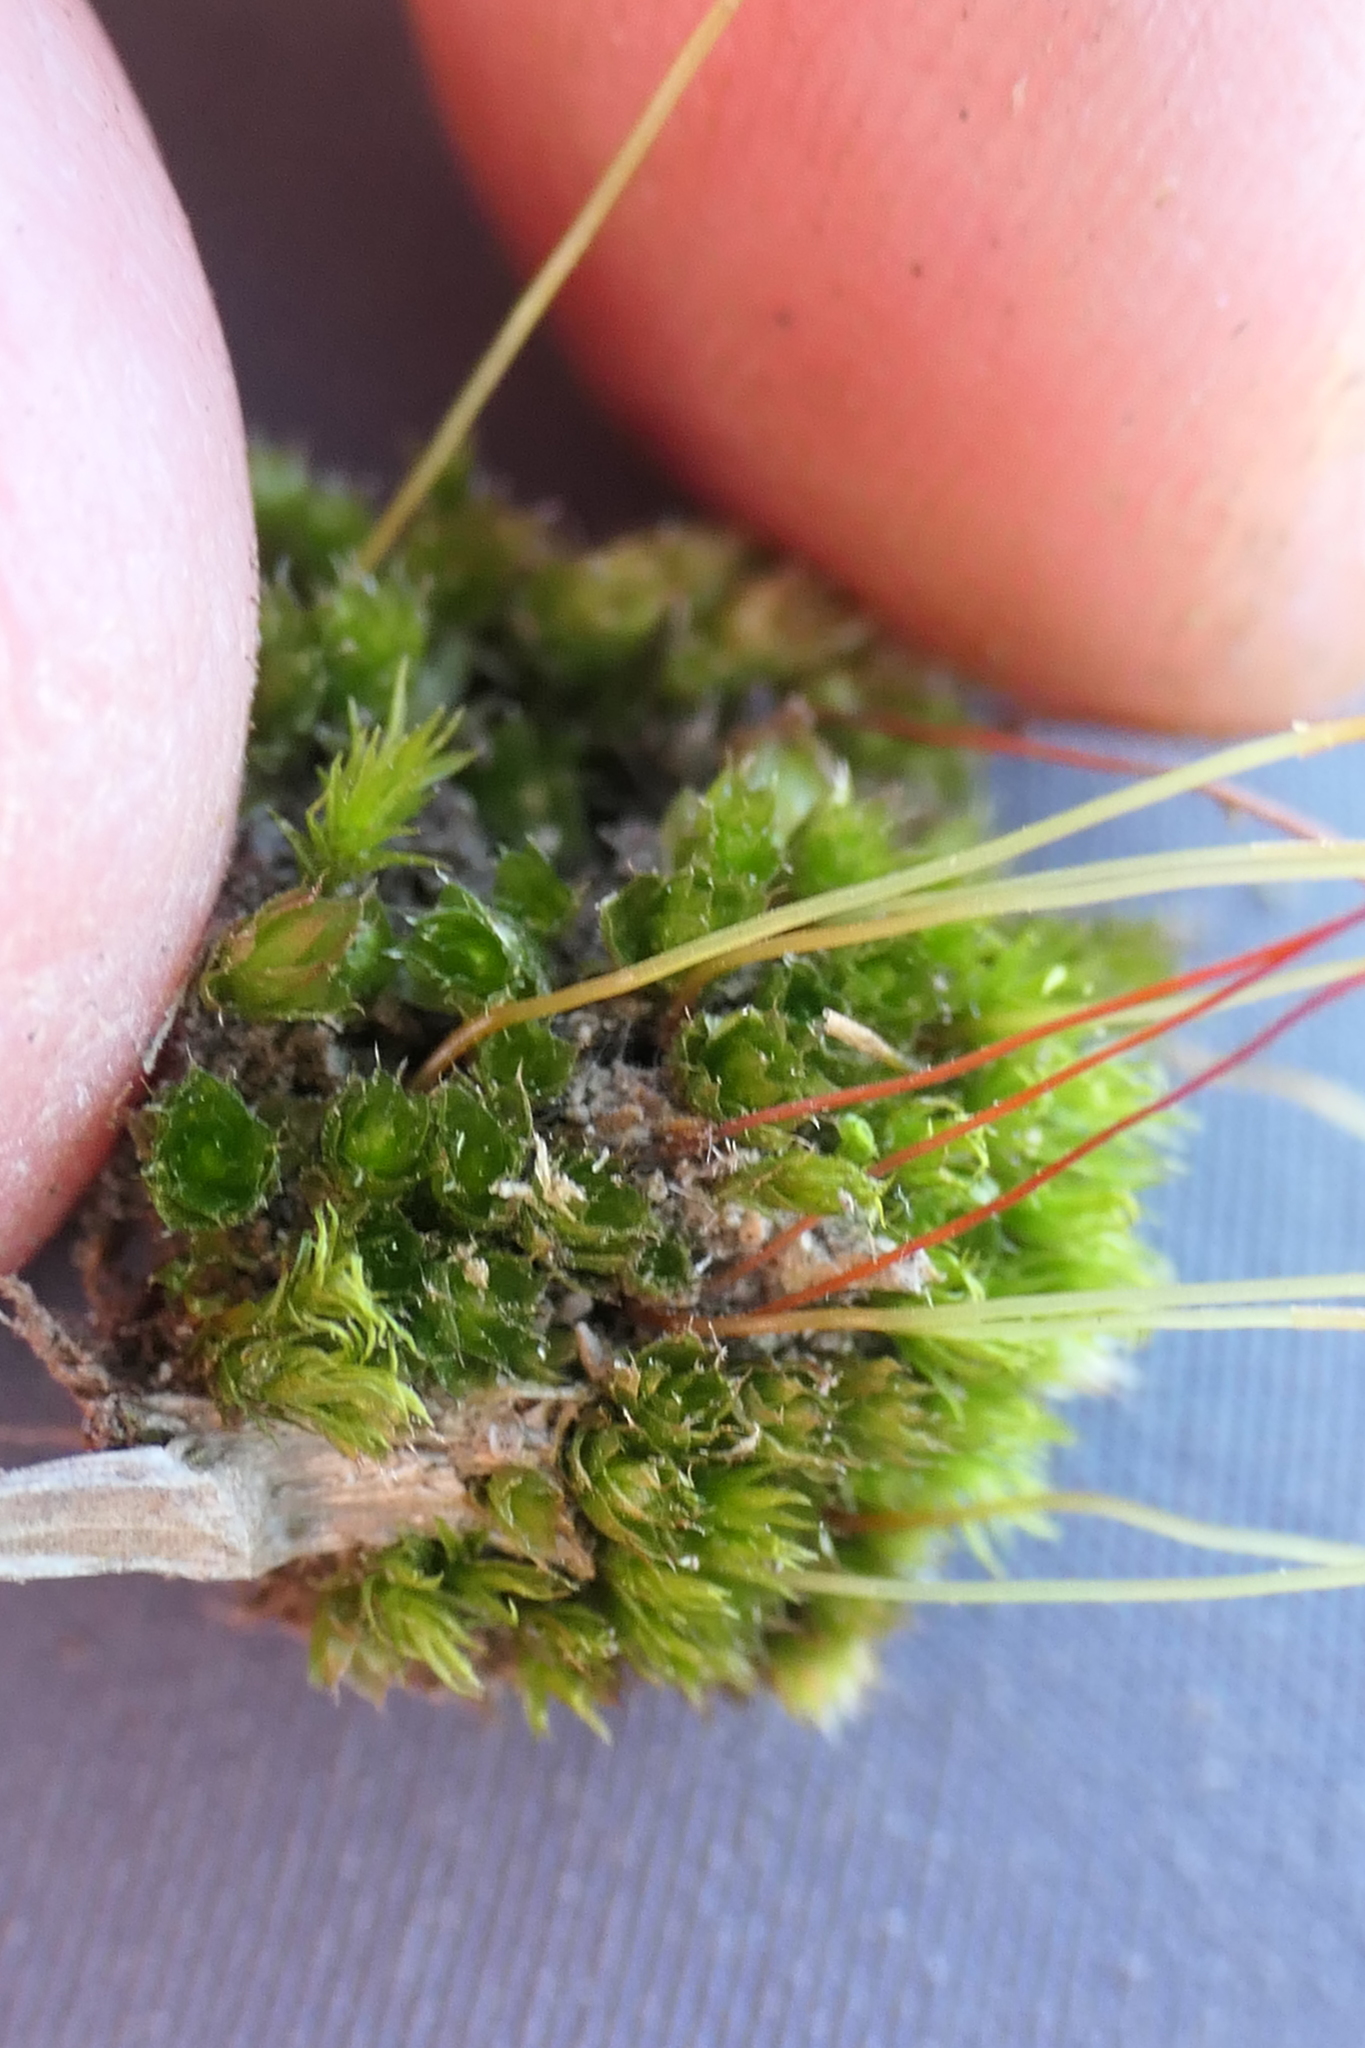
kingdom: Plantae
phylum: Bryophyta
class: Bryopsida
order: Bryales
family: Bryaceae
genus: Rosulabryum
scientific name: Rosulabryum capillare
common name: Capillary thread-moss
